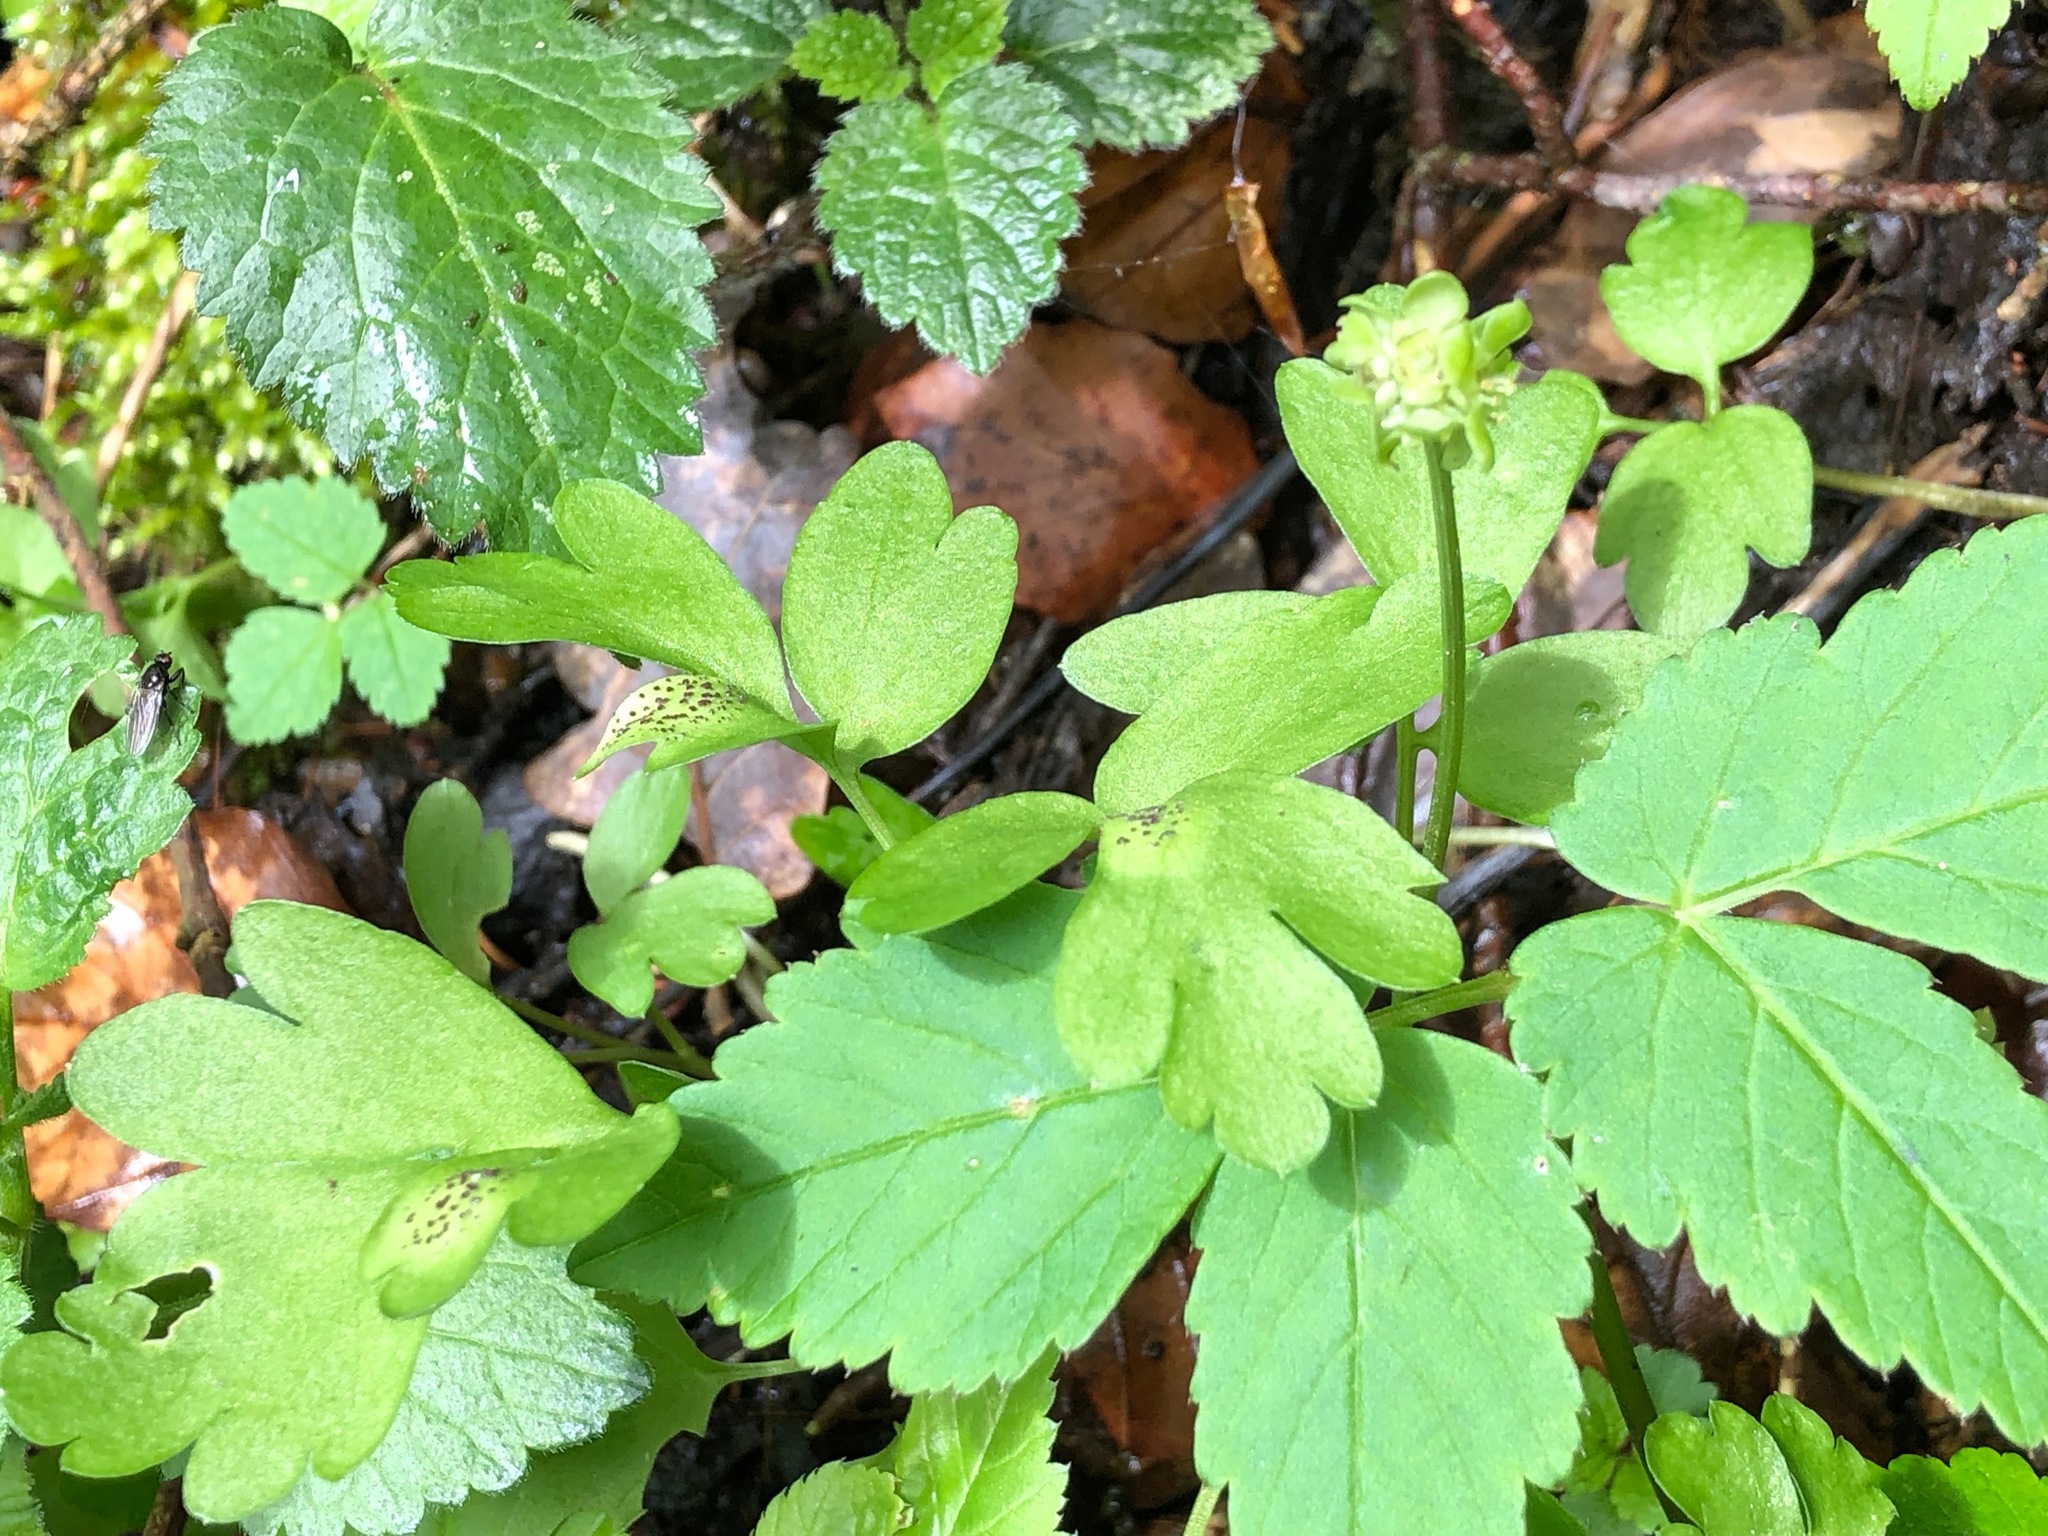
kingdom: Plantae
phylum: Tracheophyta
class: Magnoliopsida
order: Dipsacales
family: Viburnaceae
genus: Adoxa
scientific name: Adoxa moschatellina
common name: Moschatel
